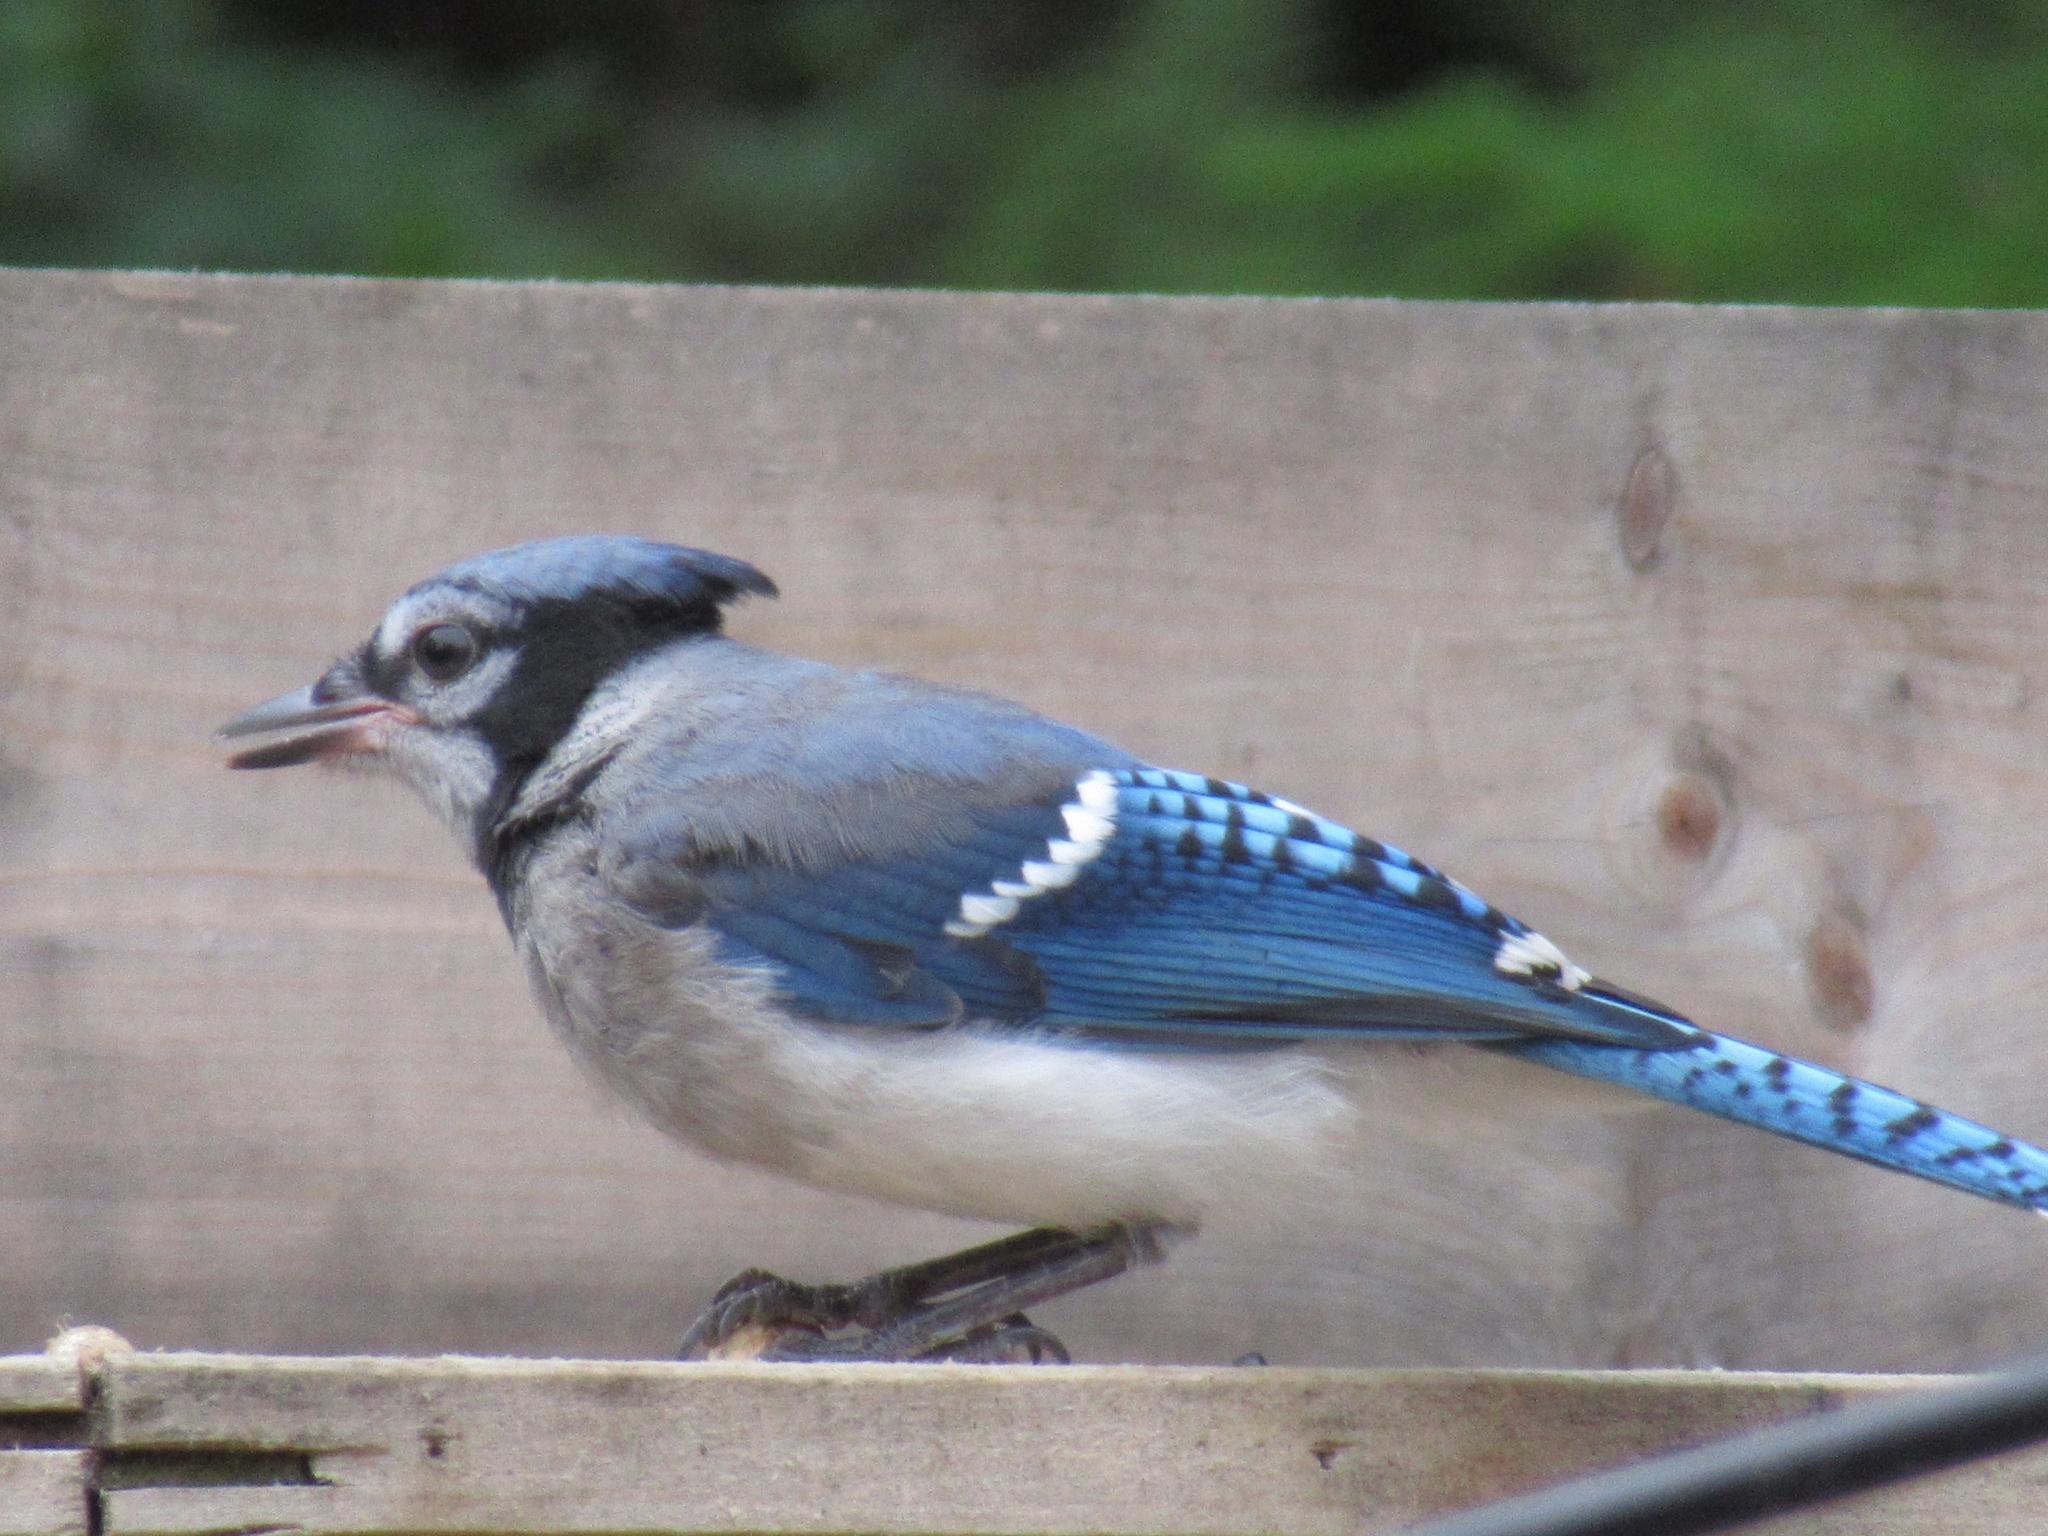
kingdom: Animalia
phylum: Chordata
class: Aves
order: Passeriformes
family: Corvidae
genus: Cyanocitta
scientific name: Cyanocitta cristata
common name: Blue jay
